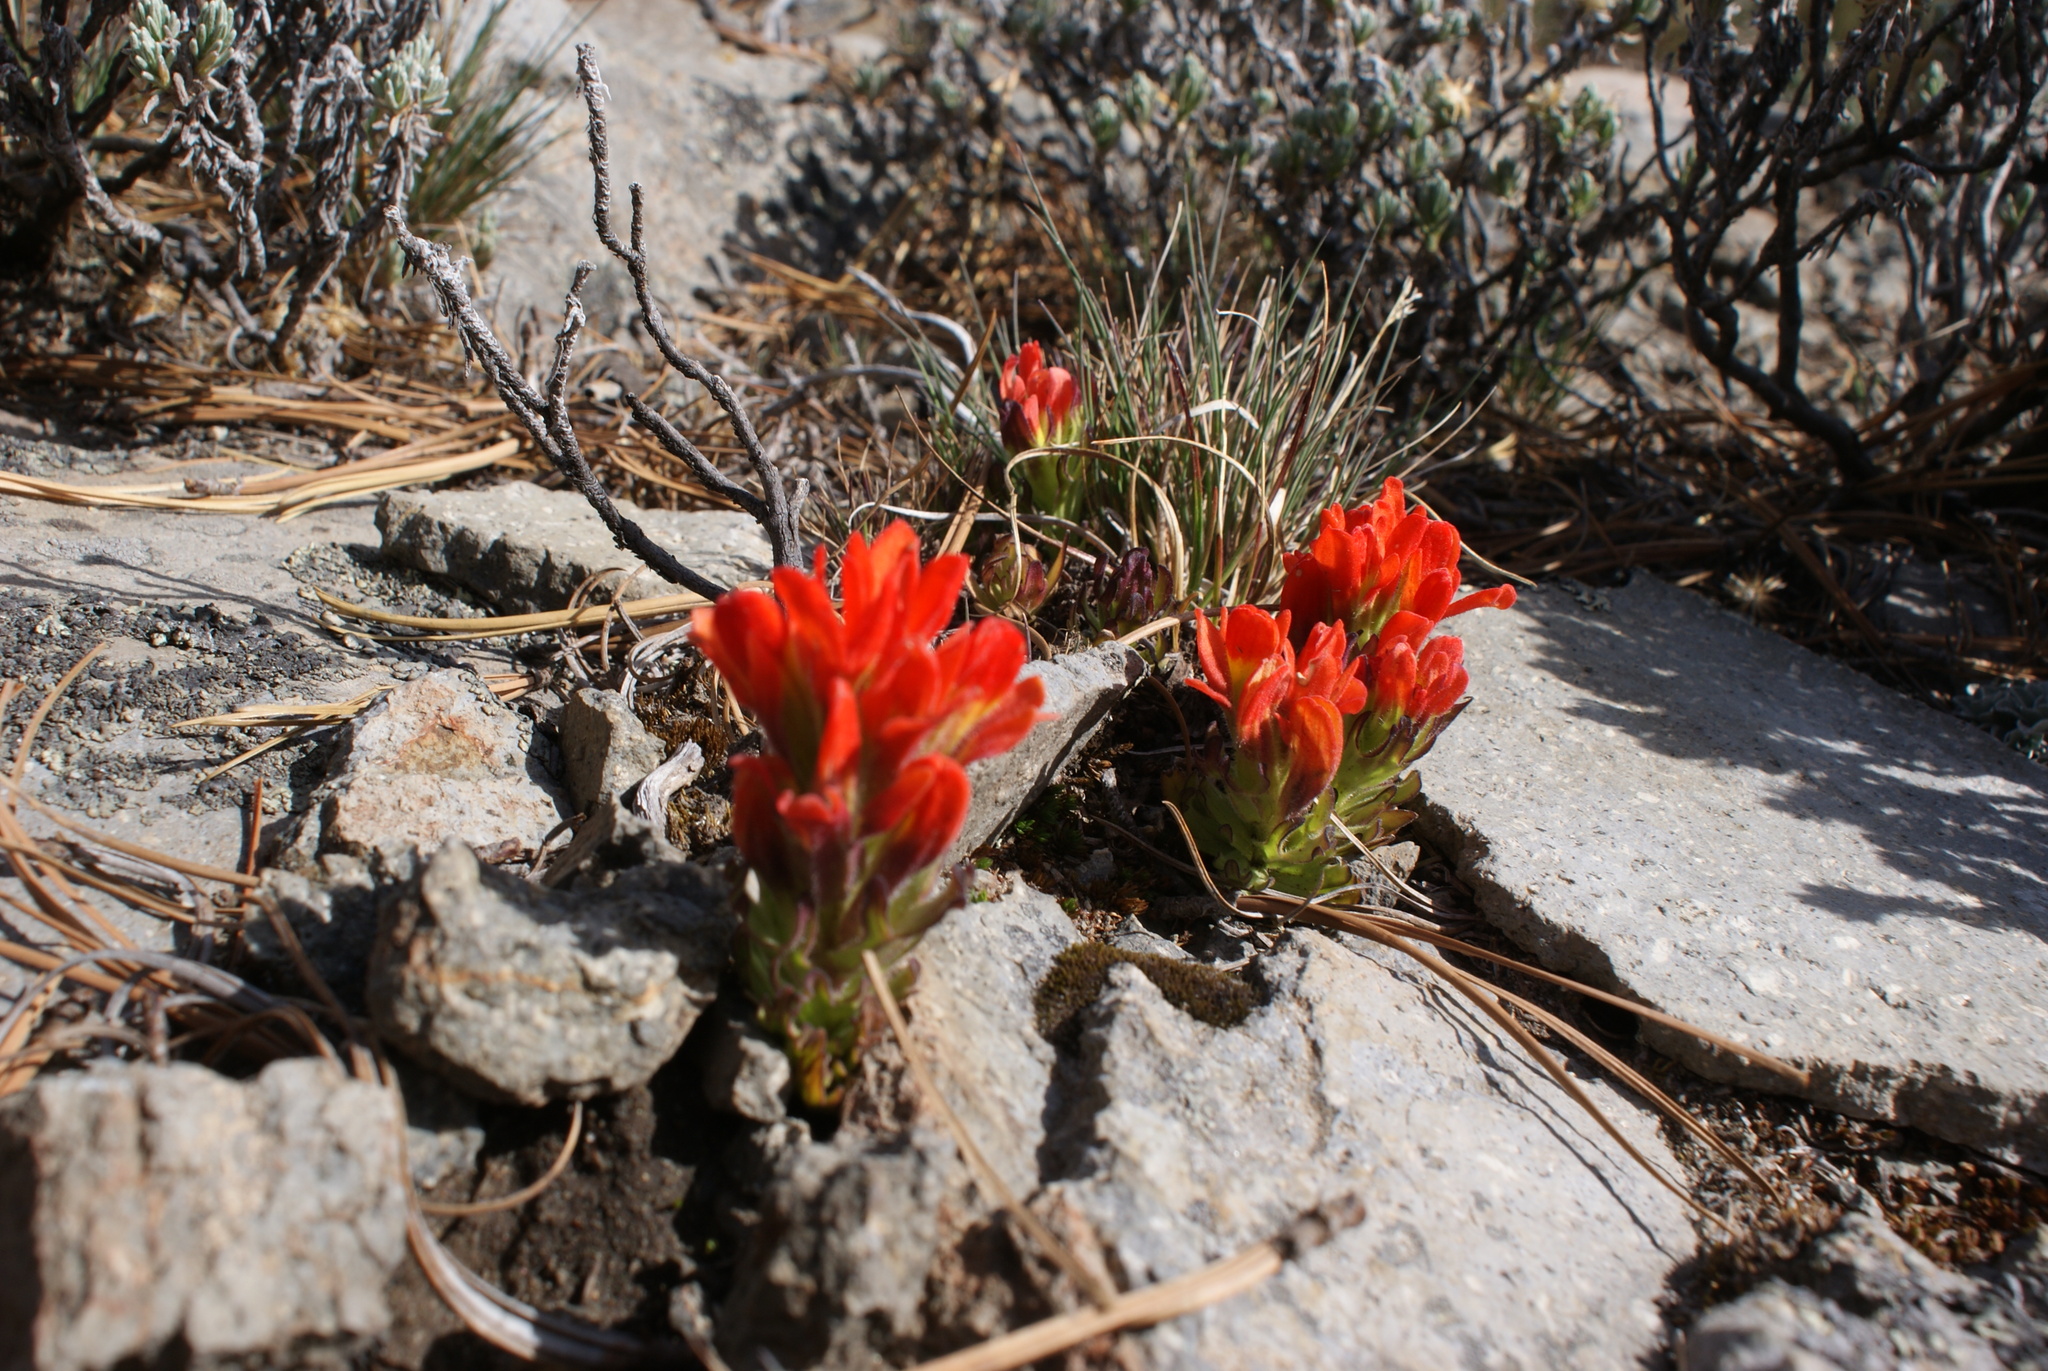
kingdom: Plantae
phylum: Tracheophyta
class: Magnoliopsida
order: Lamiales
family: Orobanchaceae
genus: Castilleja
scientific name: Castilleja tolucensis
